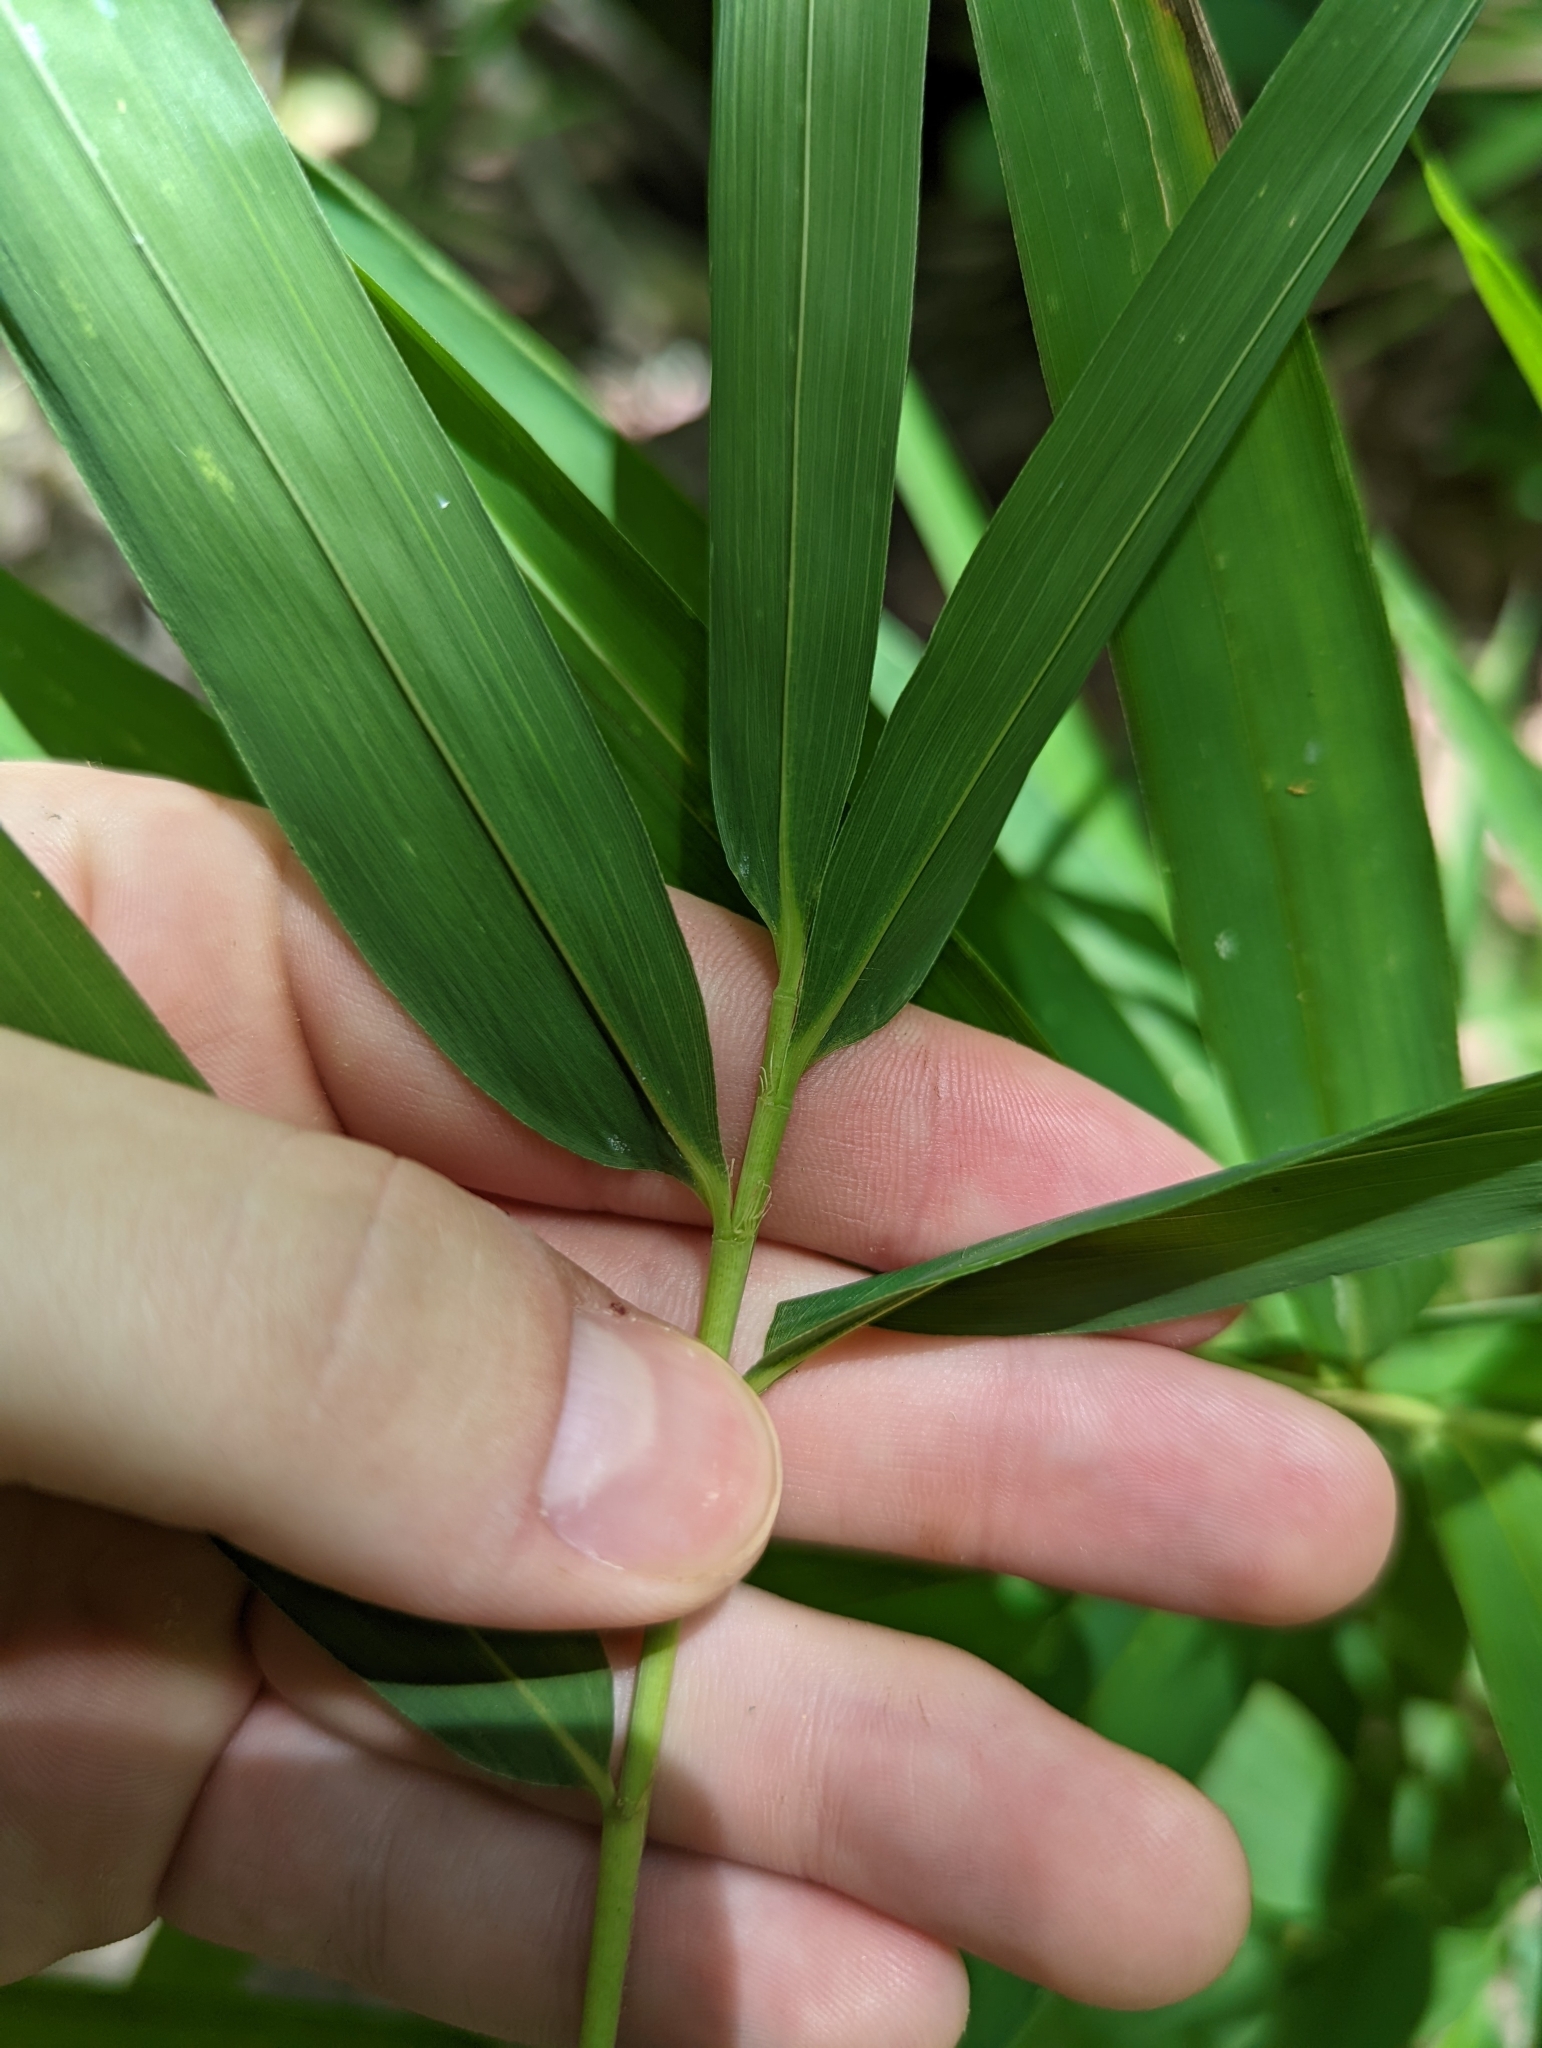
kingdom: Plantae
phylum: Tracheophyta
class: Liliopsida
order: Poales
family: Poaceae
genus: Arundinaria
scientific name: Arundinaria appalachiana
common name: Hill cane
